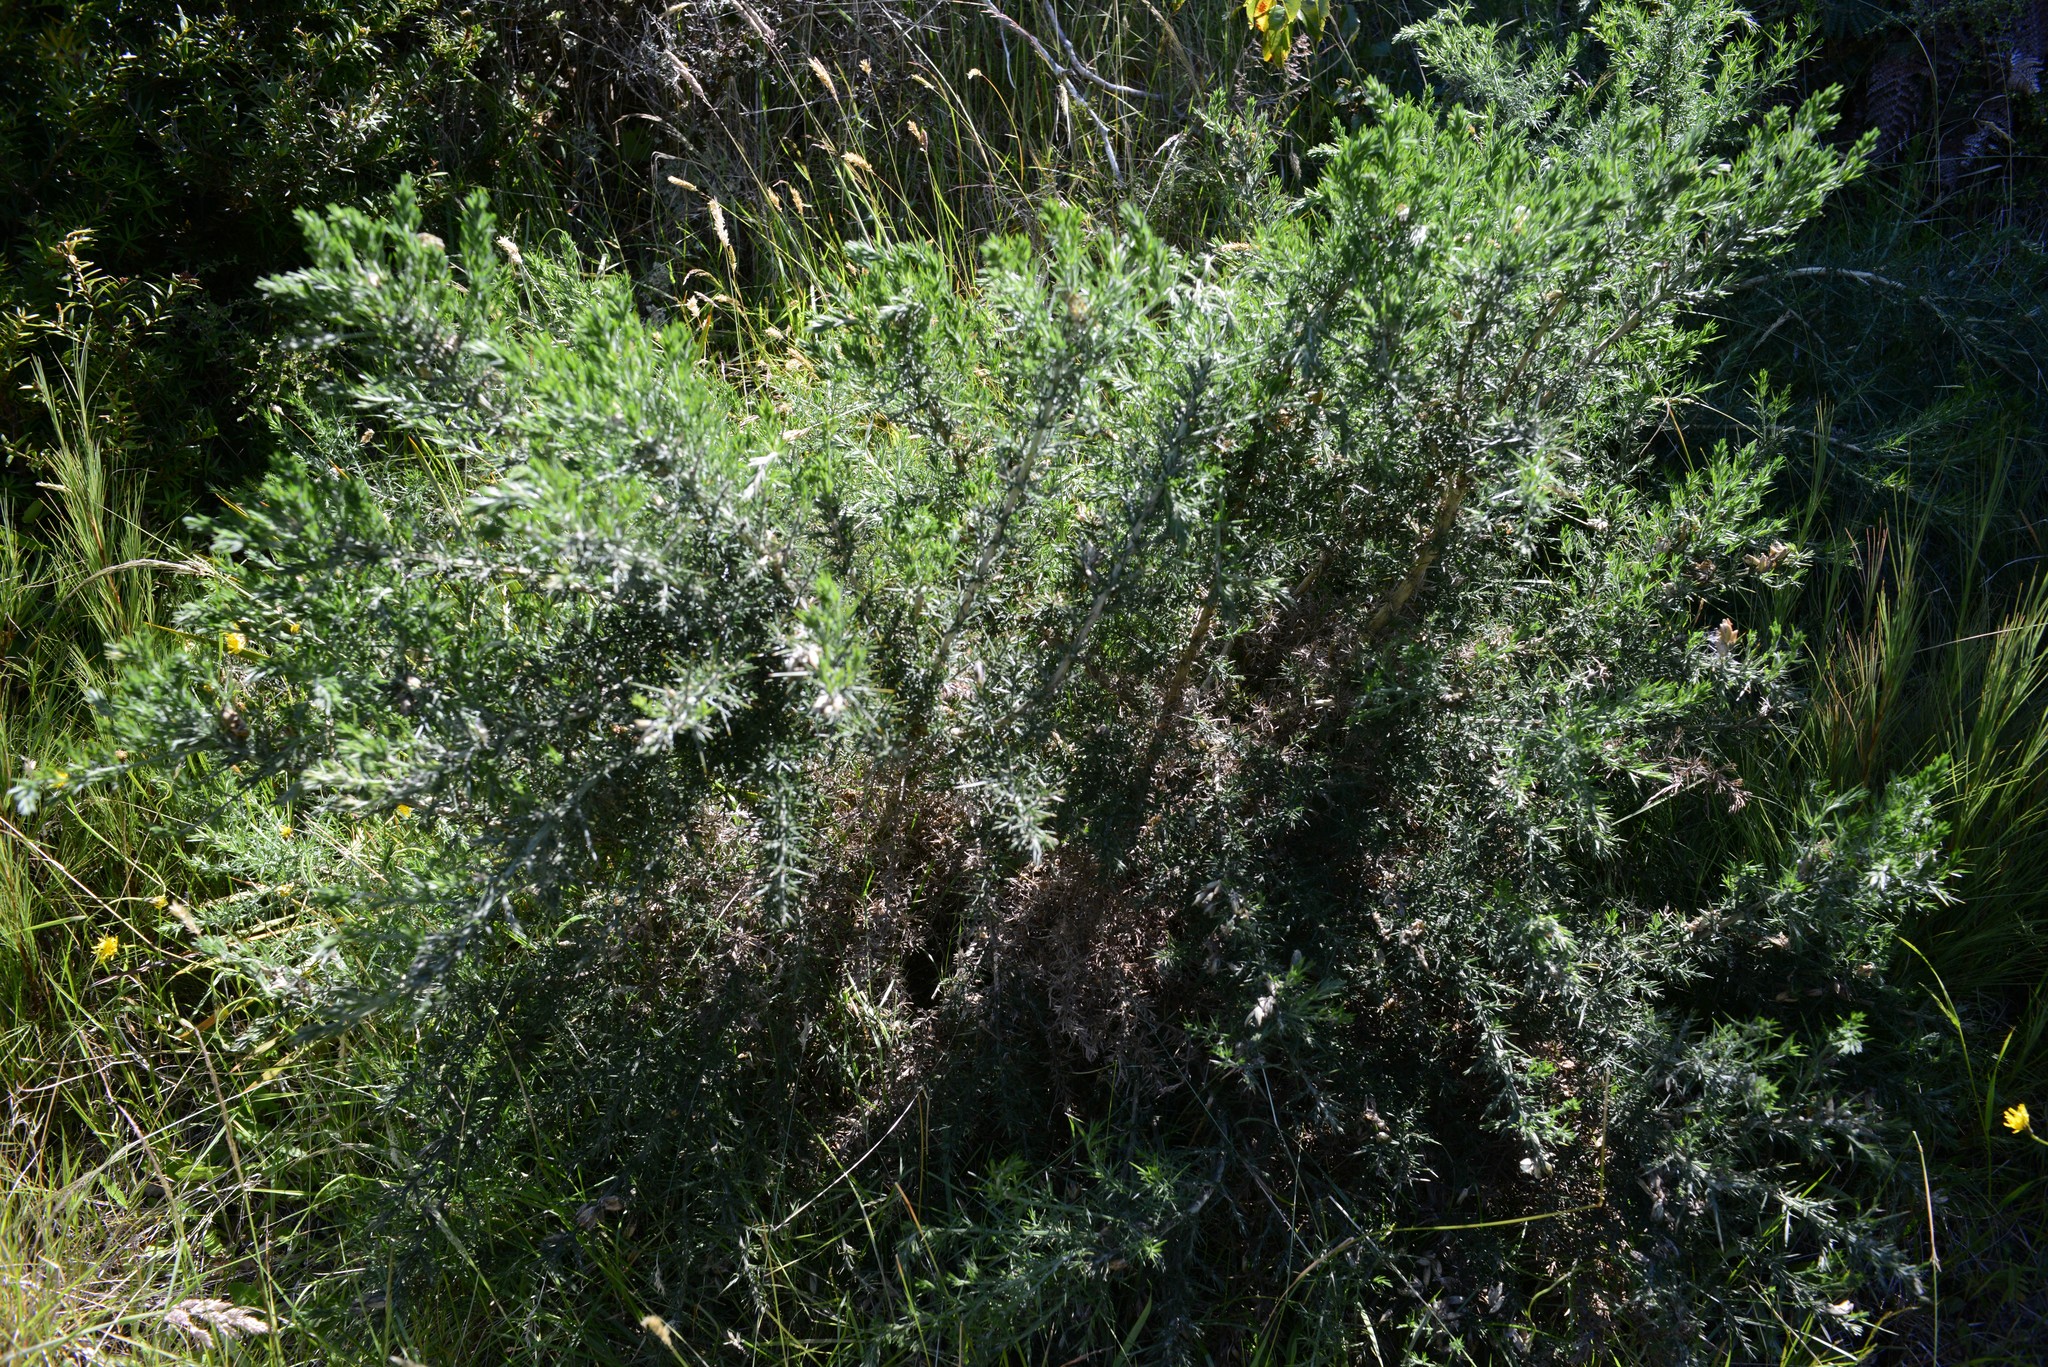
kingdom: Plantae
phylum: Tracheophyta
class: Magnoliopsida
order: Fabales
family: Fabaceae
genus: Ulex
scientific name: Ulex europaeus
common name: Common gorse
